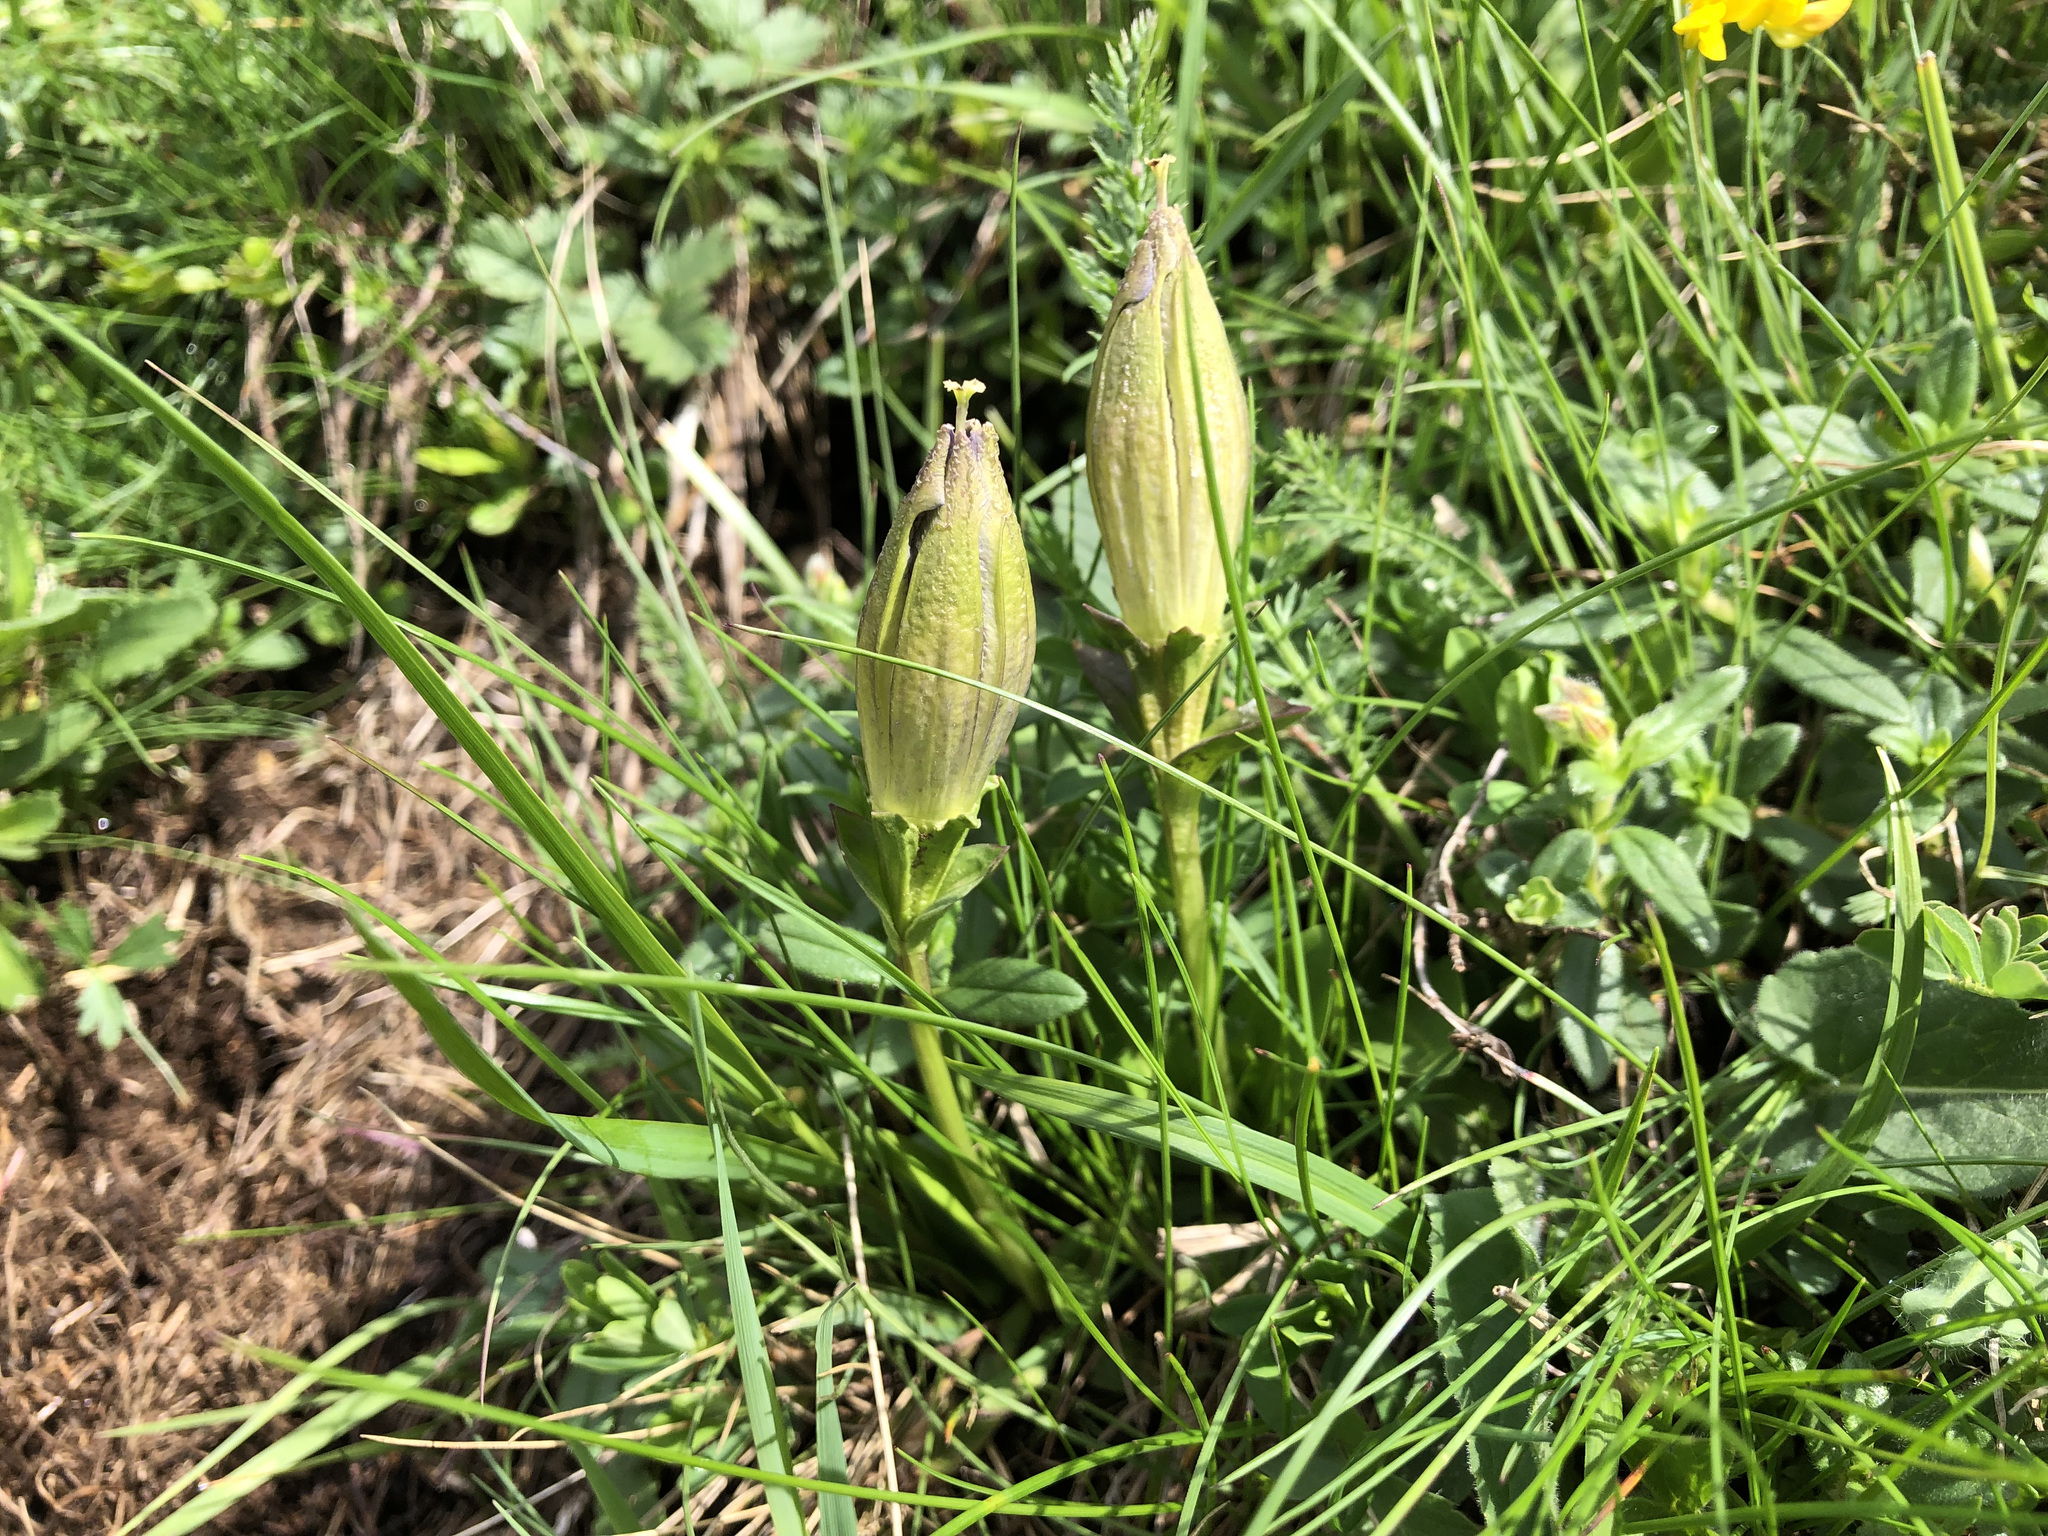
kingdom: Plantae
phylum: Tracheophyta
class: Magnoliopsida
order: Gentianales
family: Gentianaceae
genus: Gentiana
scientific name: Gentiana acaulis
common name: Trumpet gentian
